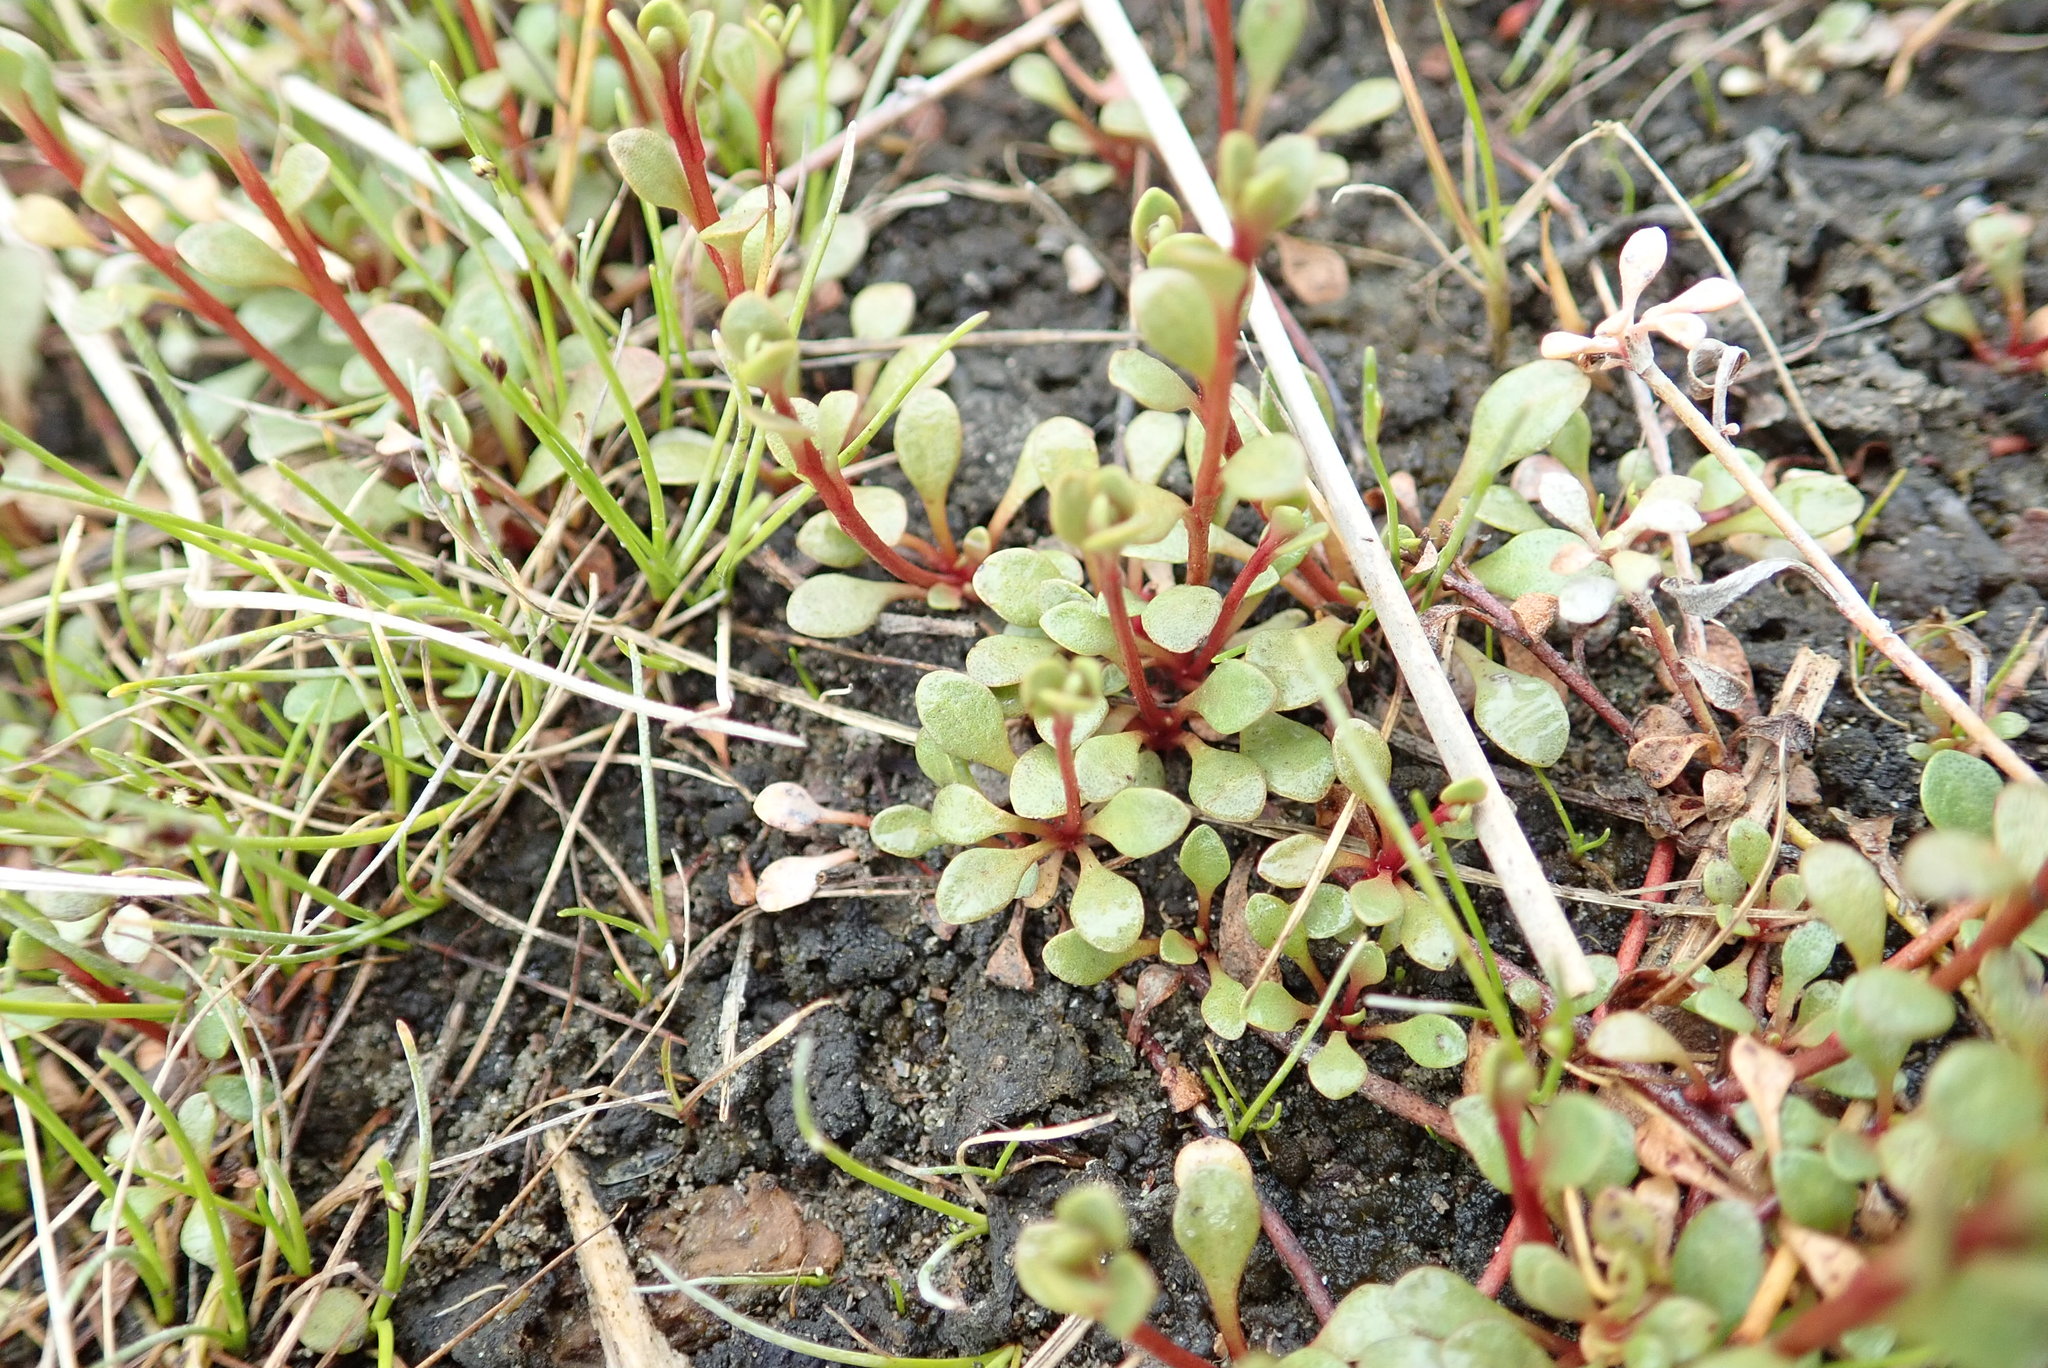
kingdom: Plantae
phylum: Tracheophyta
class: Magnoliopsida
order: Ericales
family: Primulaceae
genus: Samolus
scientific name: Samolus repens
